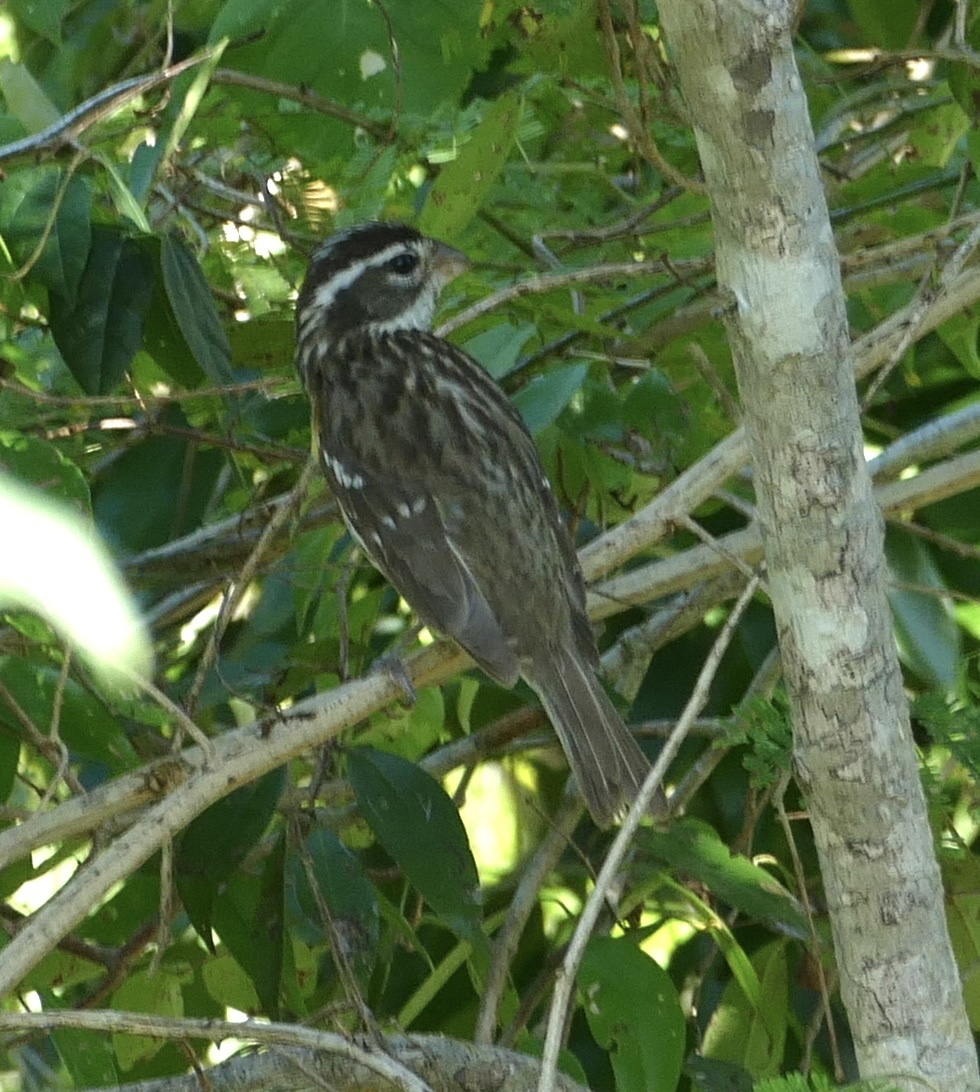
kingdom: Animalia
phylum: Chordata
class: Aves
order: Passeriformes
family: Cardinalidae
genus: Pheucticus
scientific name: Pheucticus ludovicianus
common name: Rose-breasted grosbeak
